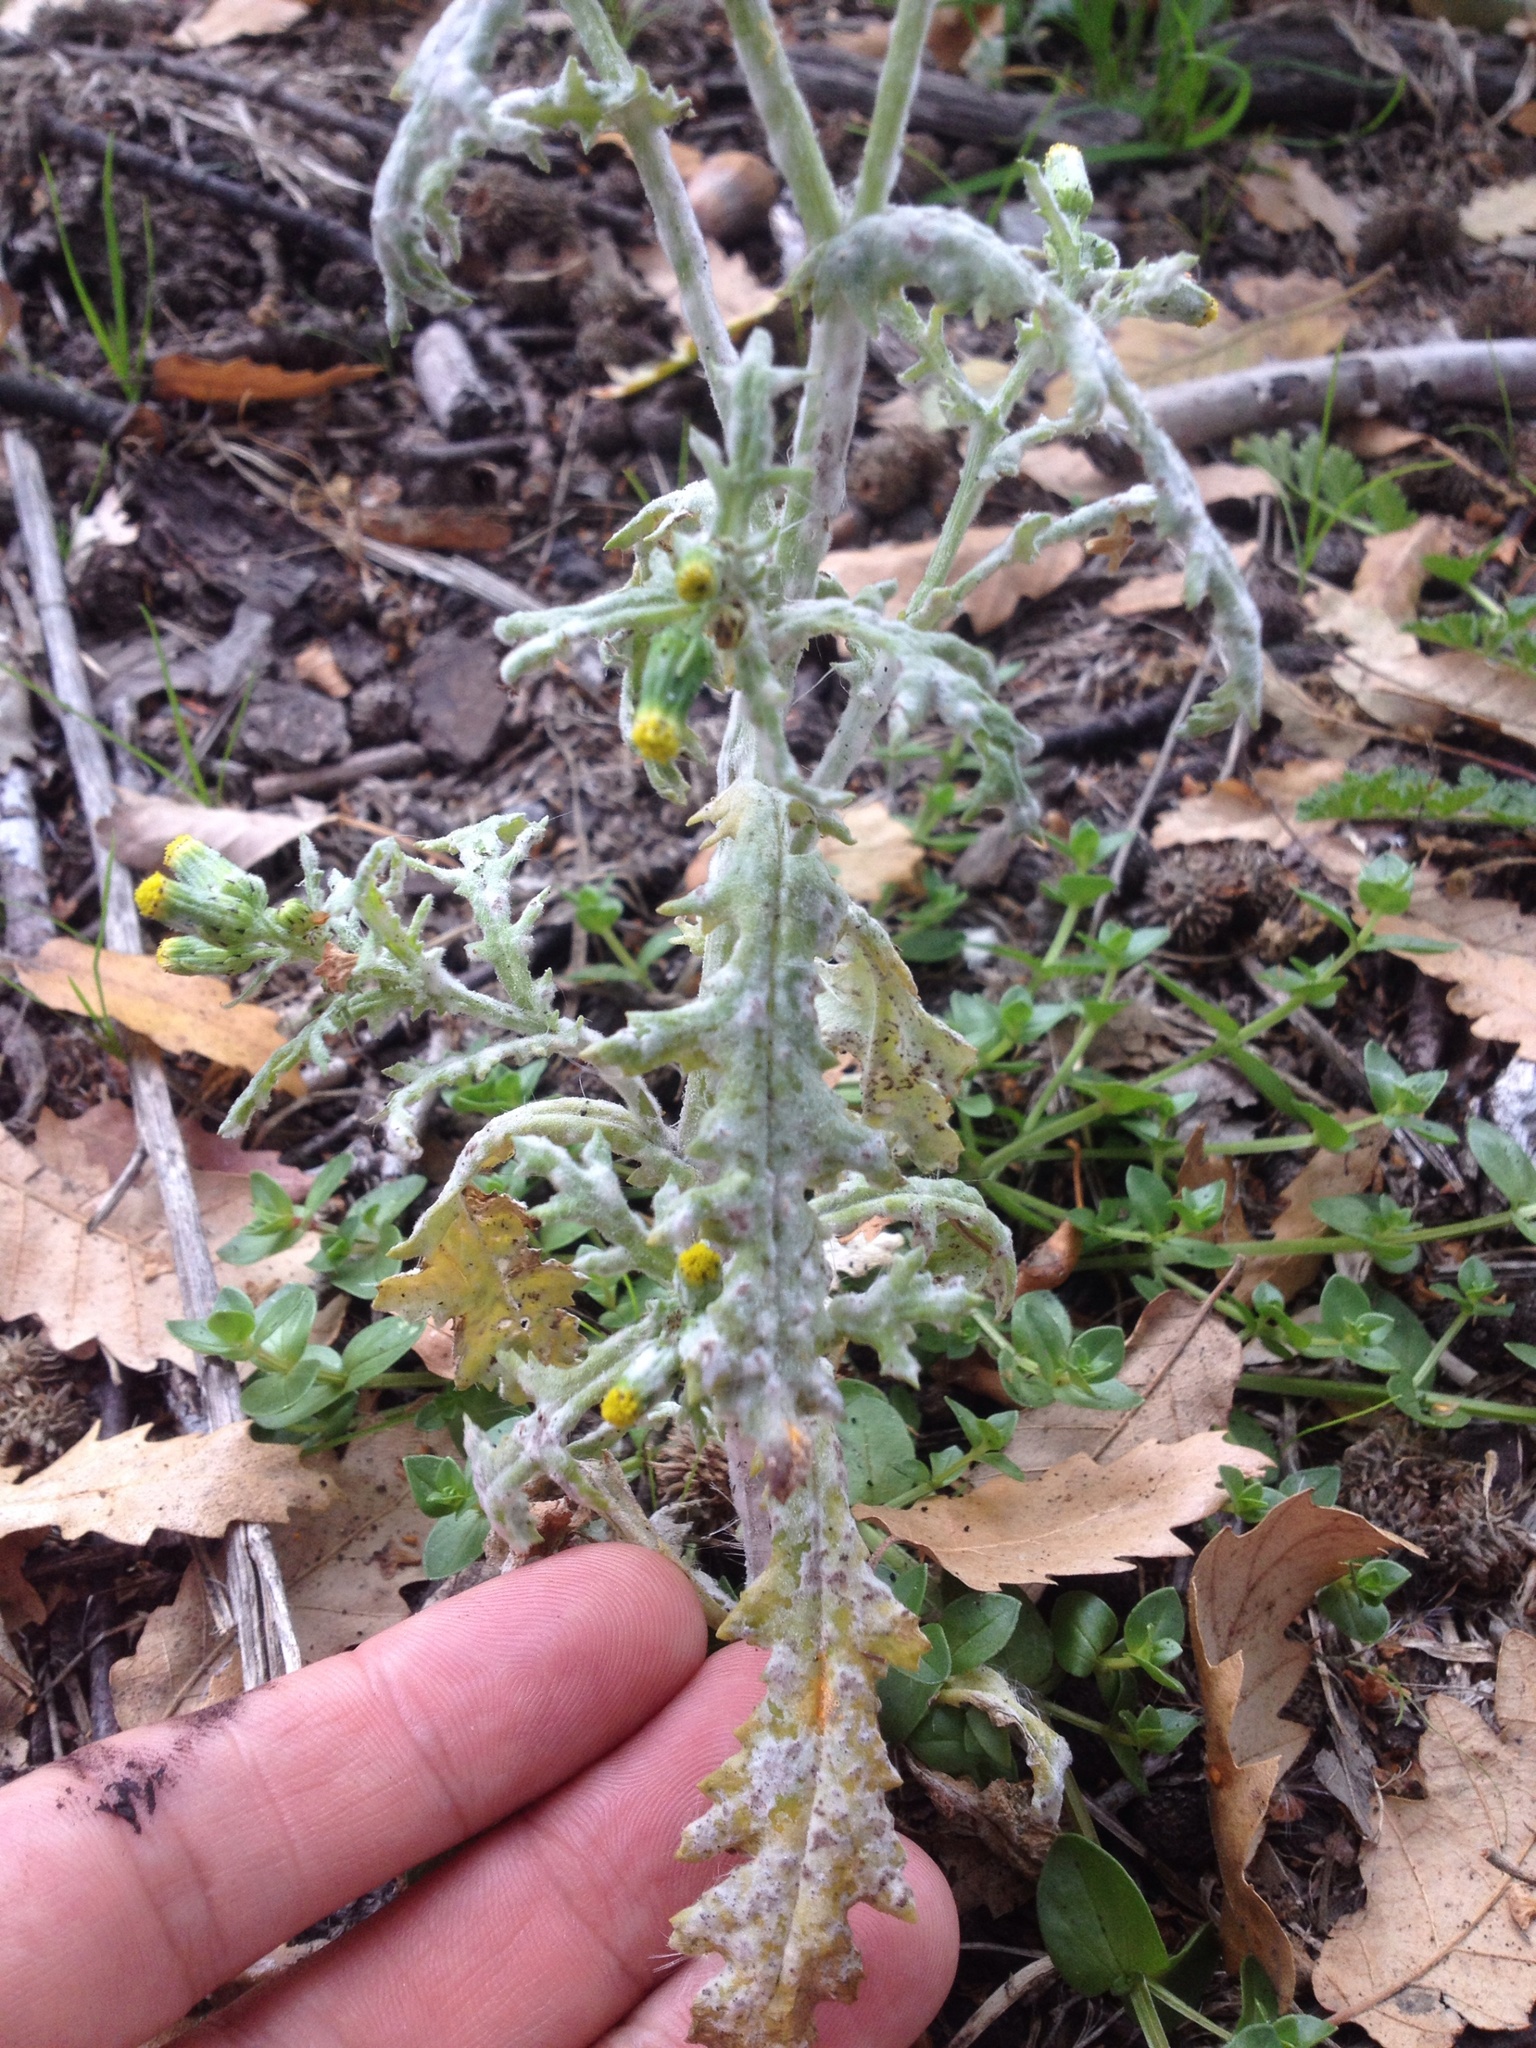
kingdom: Fungi
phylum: Ascomycota
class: Leotiomycetes
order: Helotiales
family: Erysiphaceae
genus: Neoerysiphe
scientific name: Neoerysiphe kerribeeensis
